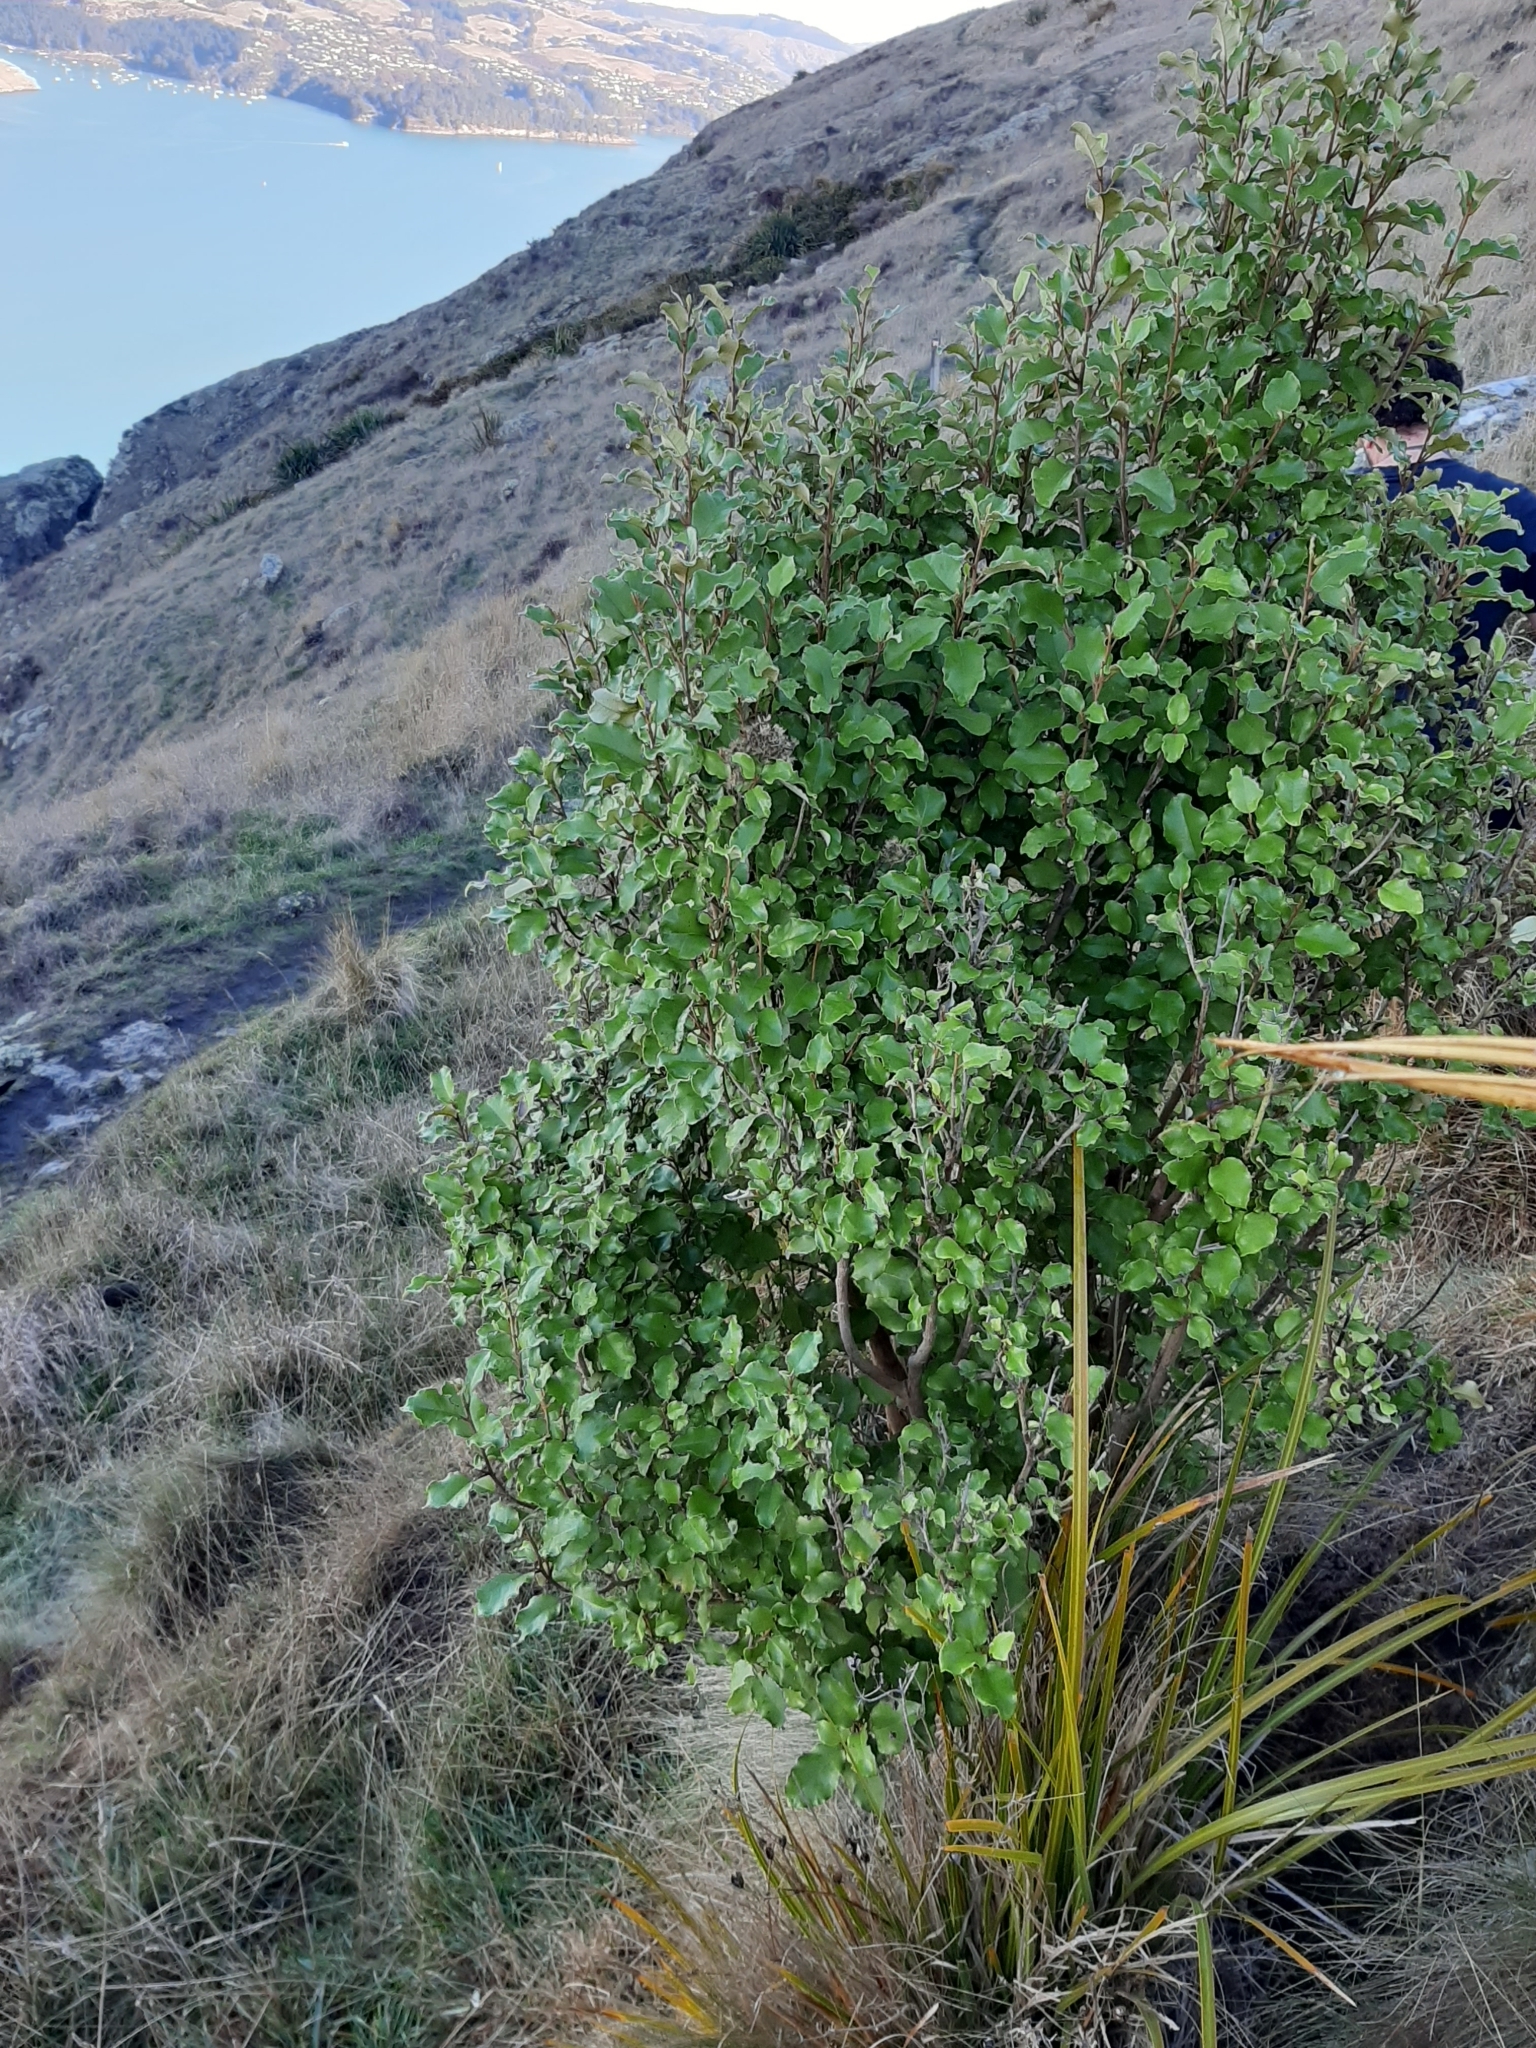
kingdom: Plantae
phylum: Tracheophyta
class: Magnoliopsida
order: Asterales
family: Asteraceae
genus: Olearia
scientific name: Olearia paniculata
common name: Akiraho
